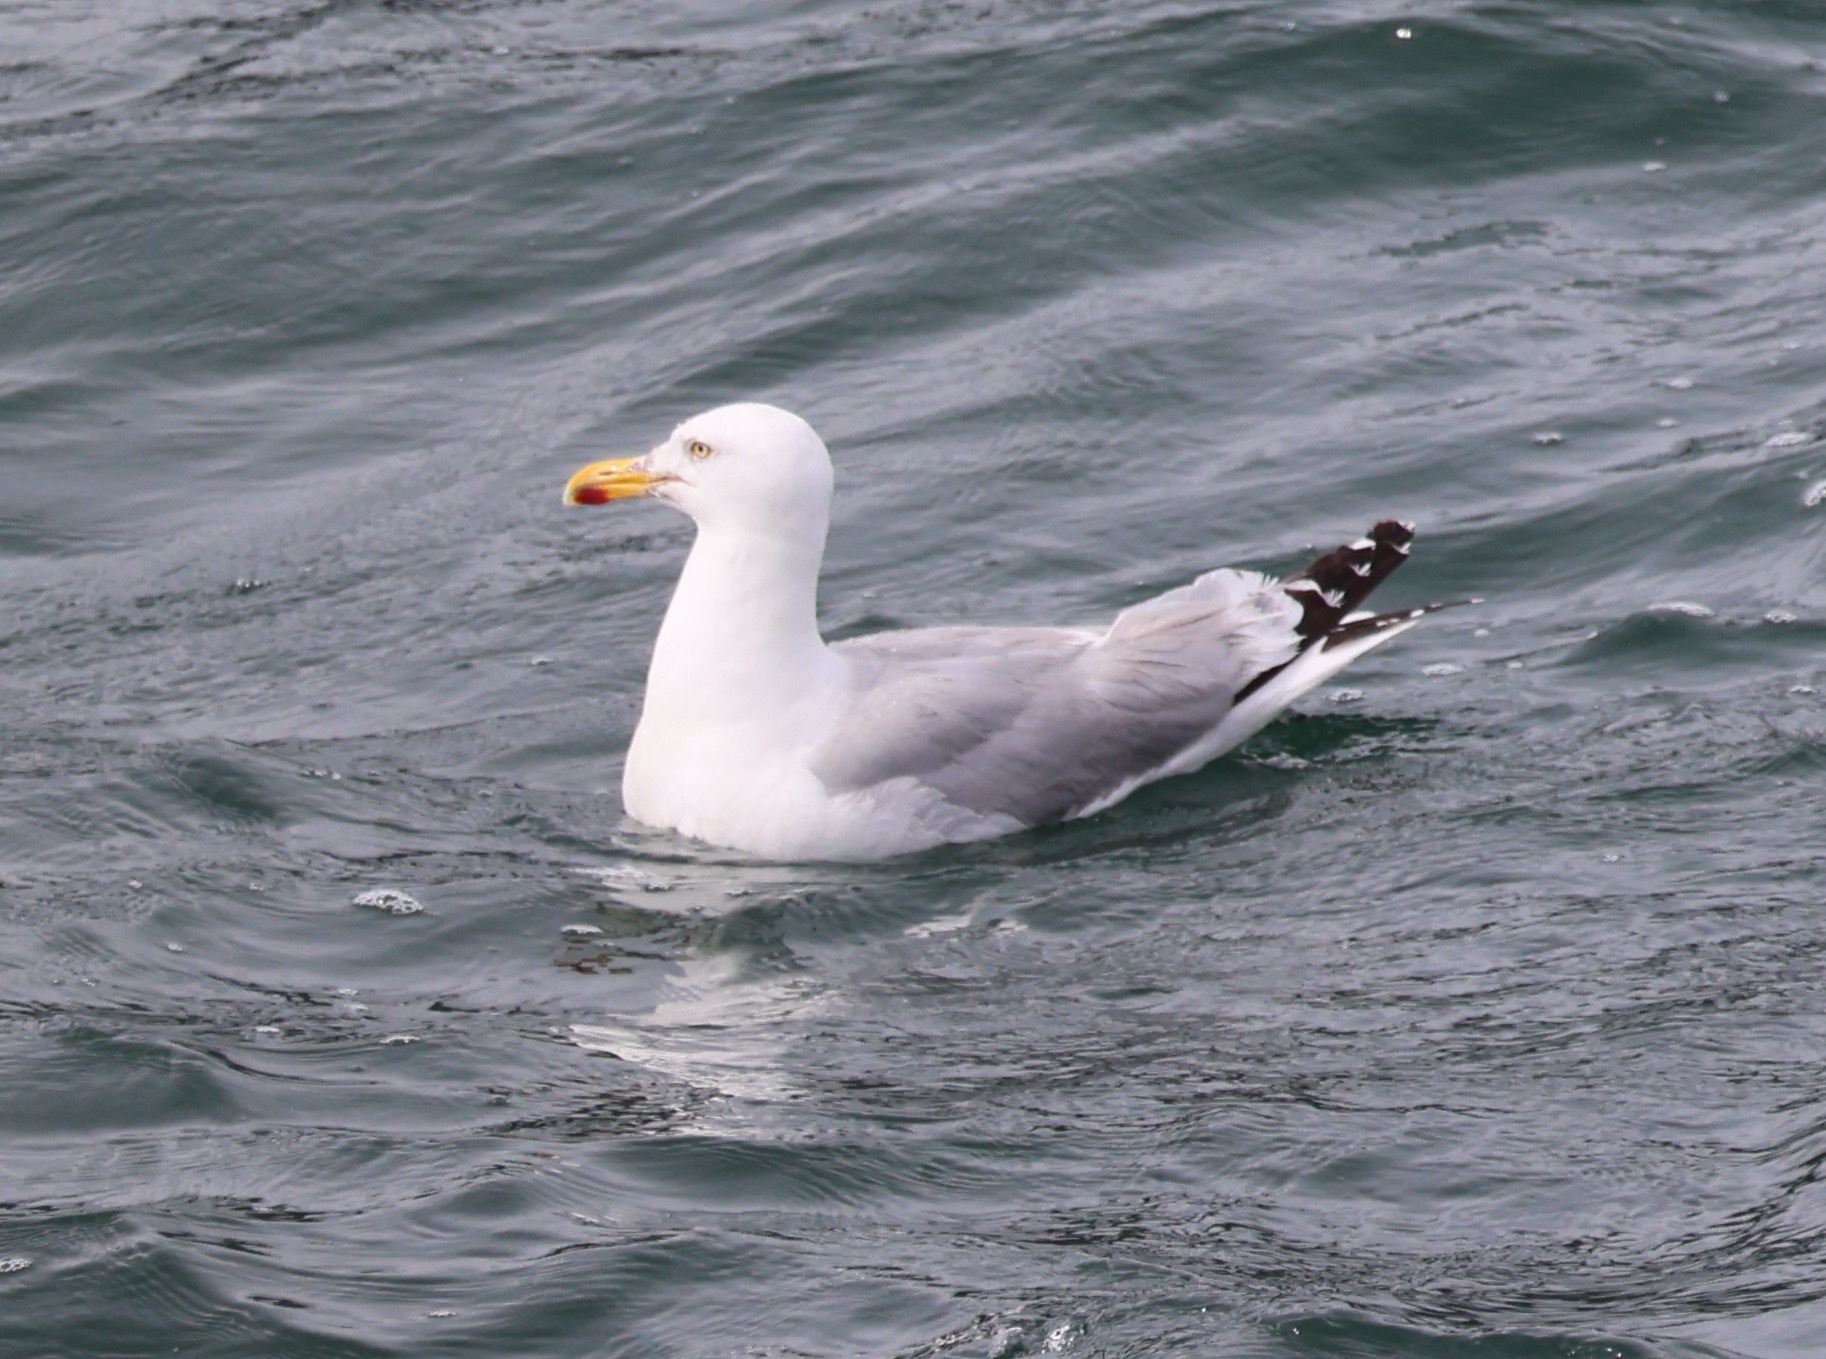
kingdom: Animalia
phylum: Chordata
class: Aves
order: Charadriiformes
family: Laridae
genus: Larus
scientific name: Larus argentatus
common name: Herring gull
